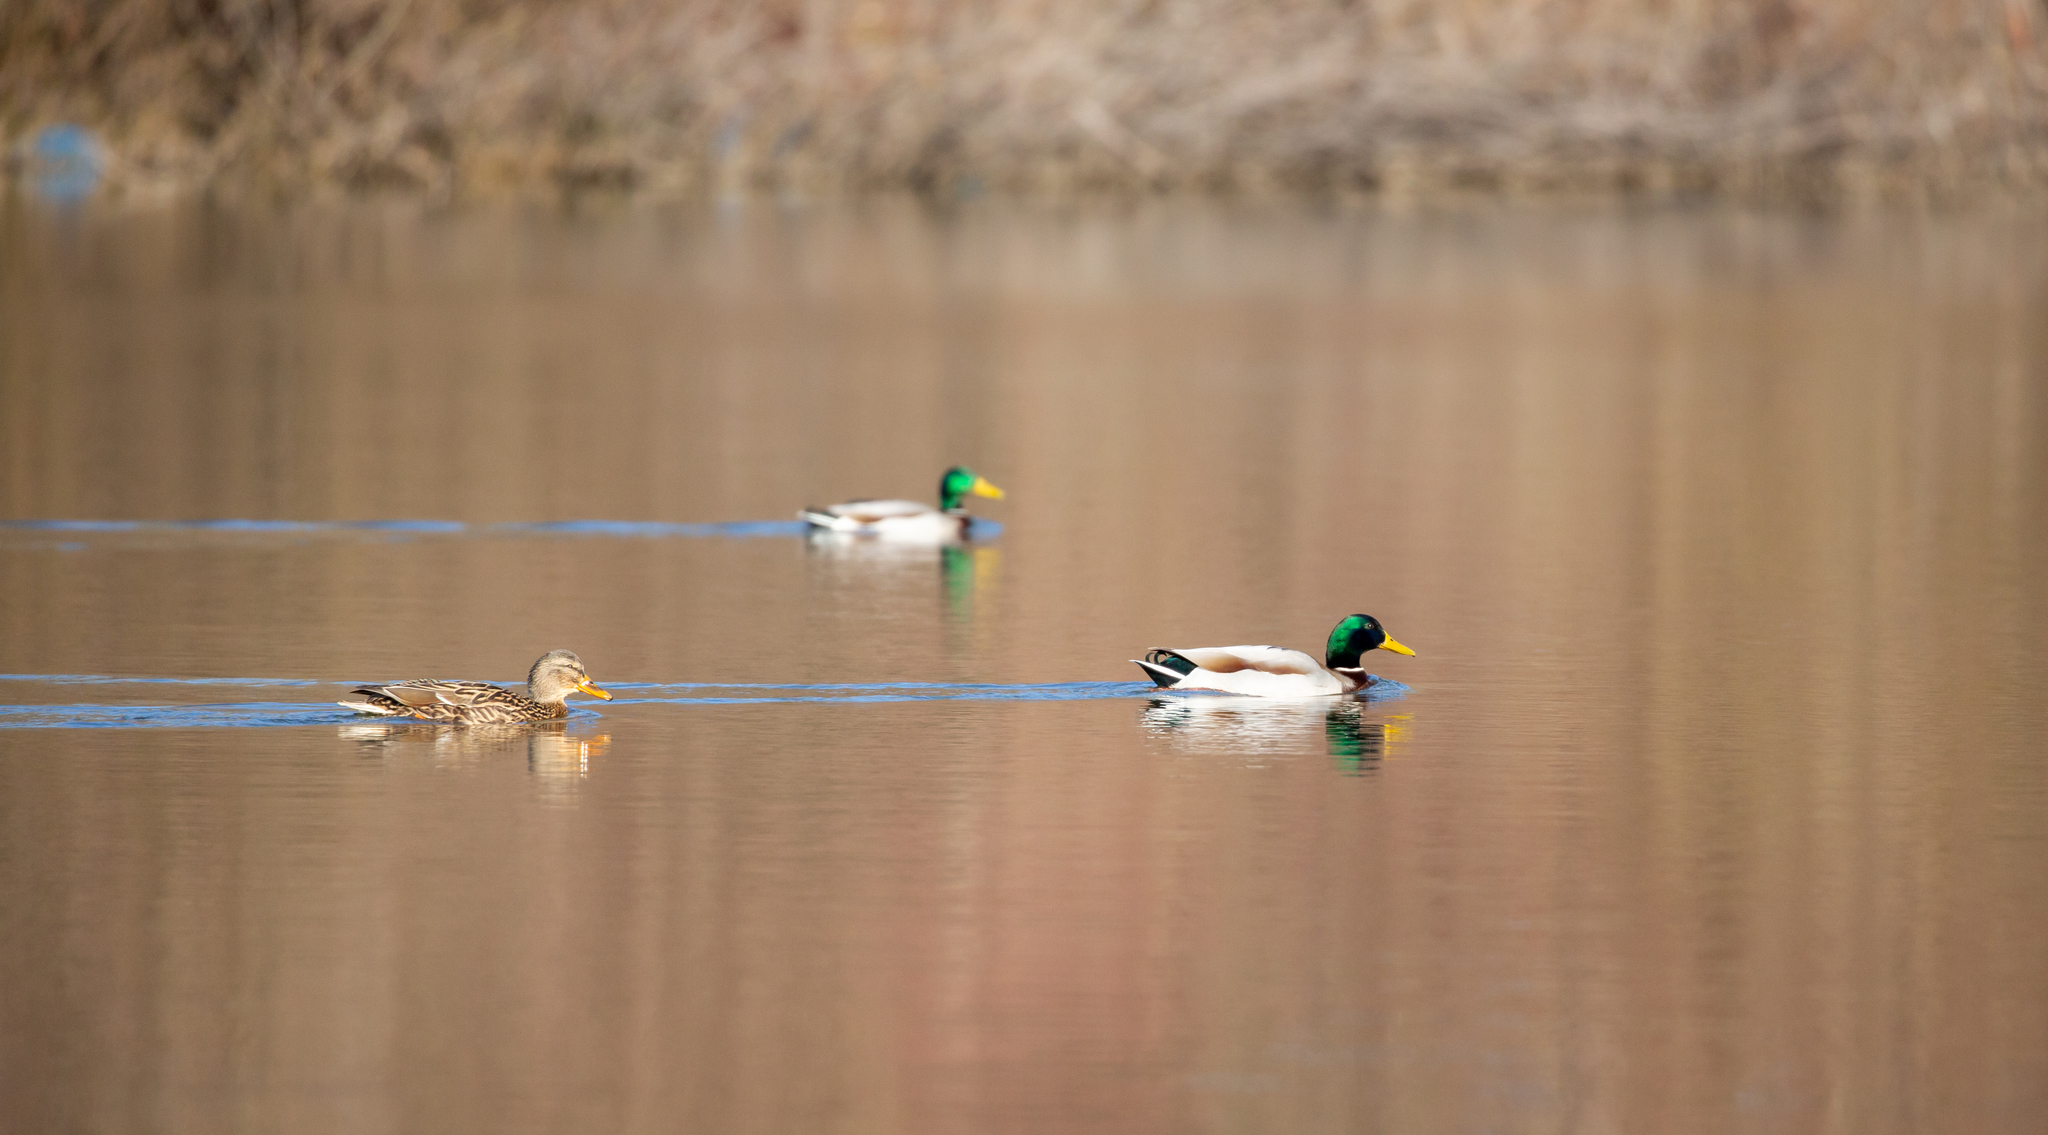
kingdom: Animalia
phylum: Chordata
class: Aves
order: Anseriformes
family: Anatidae
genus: Anas
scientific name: Anas platyrhynchos
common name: Mallard
